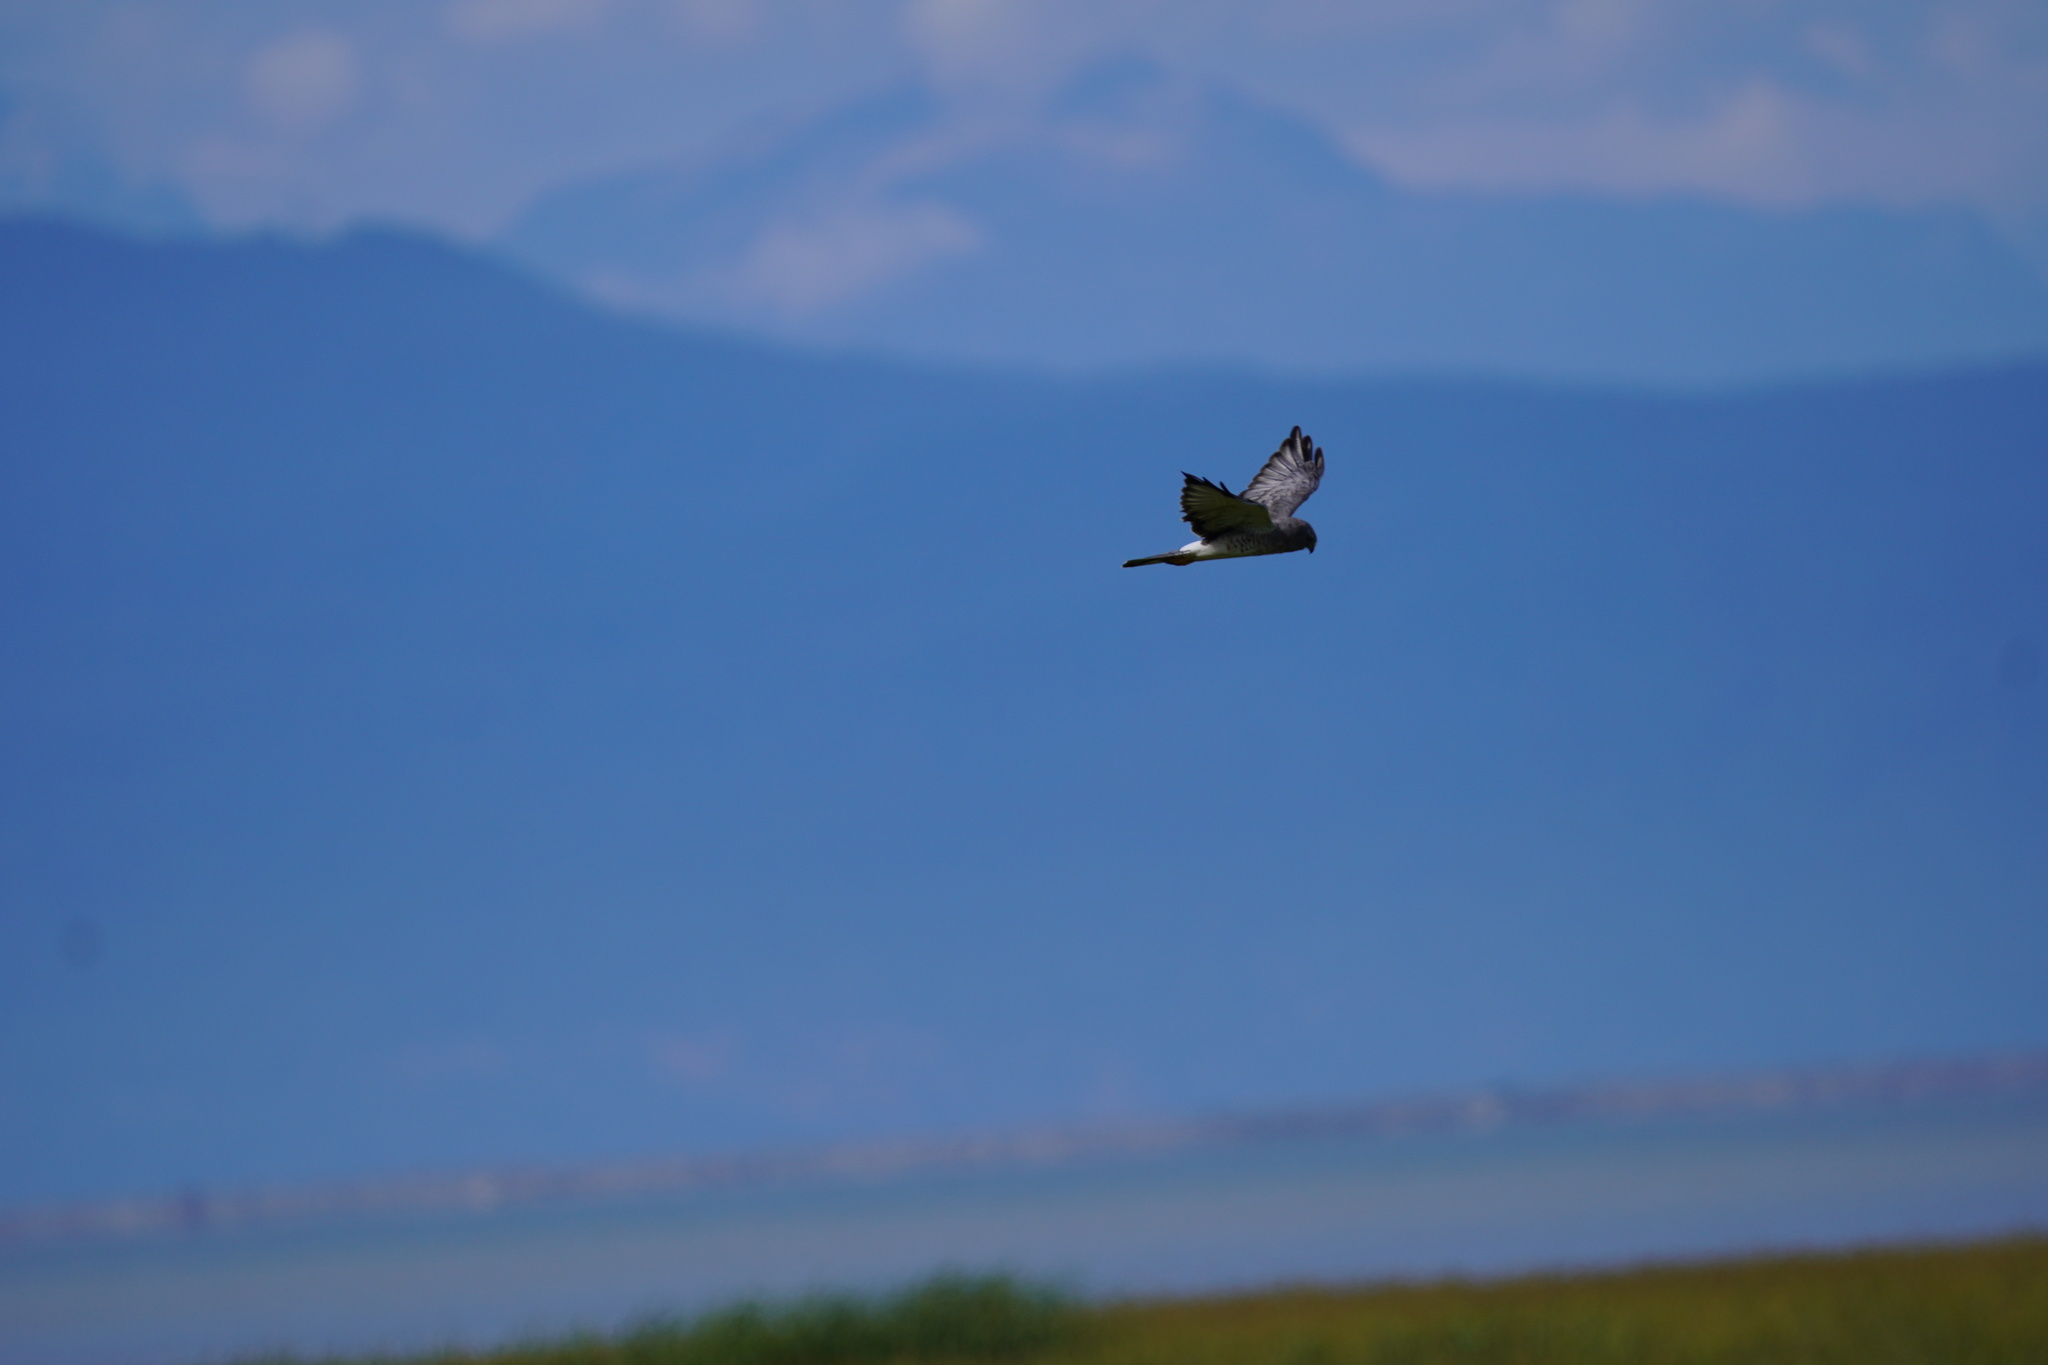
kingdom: Animalia
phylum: Chordata
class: Aves
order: Accipitriformes
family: Accipitridae
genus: Circus
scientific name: Circus cyaneus
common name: Hen harrier
